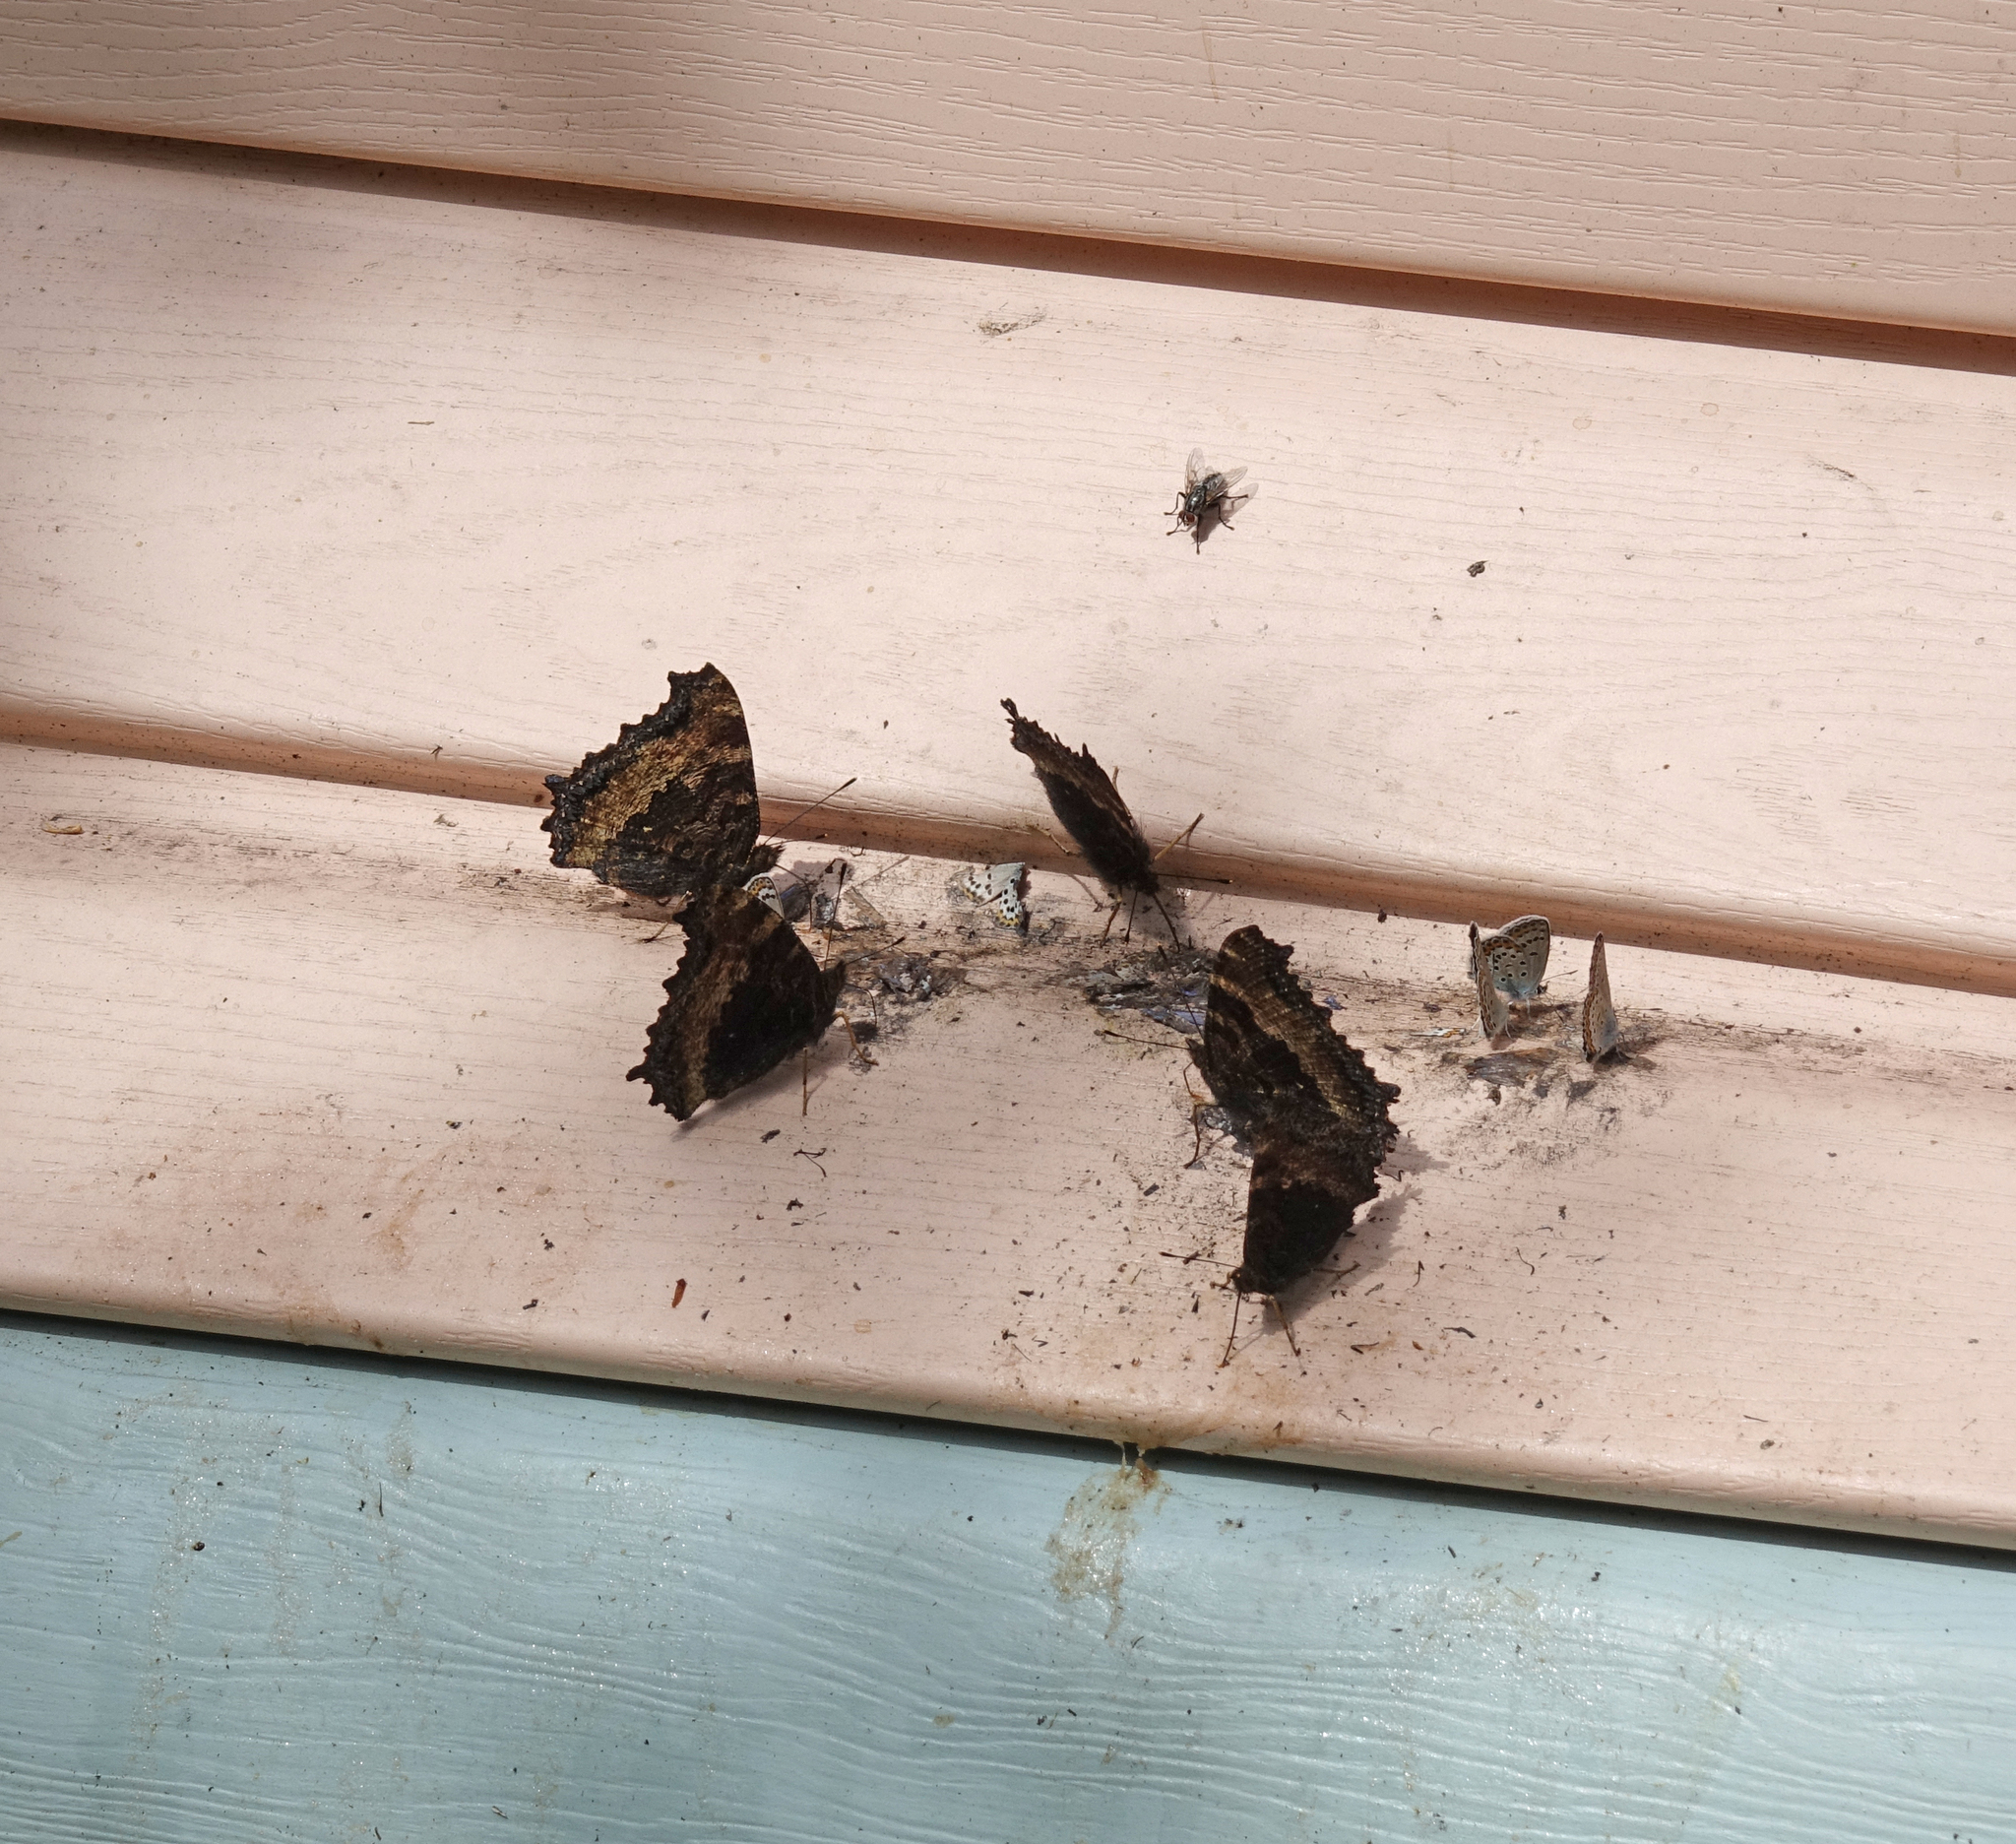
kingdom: Animalia
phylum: Arthropoda
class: Insecta
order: Lepidoptera
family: Nymphalidae
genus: Nymphalis
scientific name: Nymphalis xanthomelas
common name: Scarce tortoiseshell
